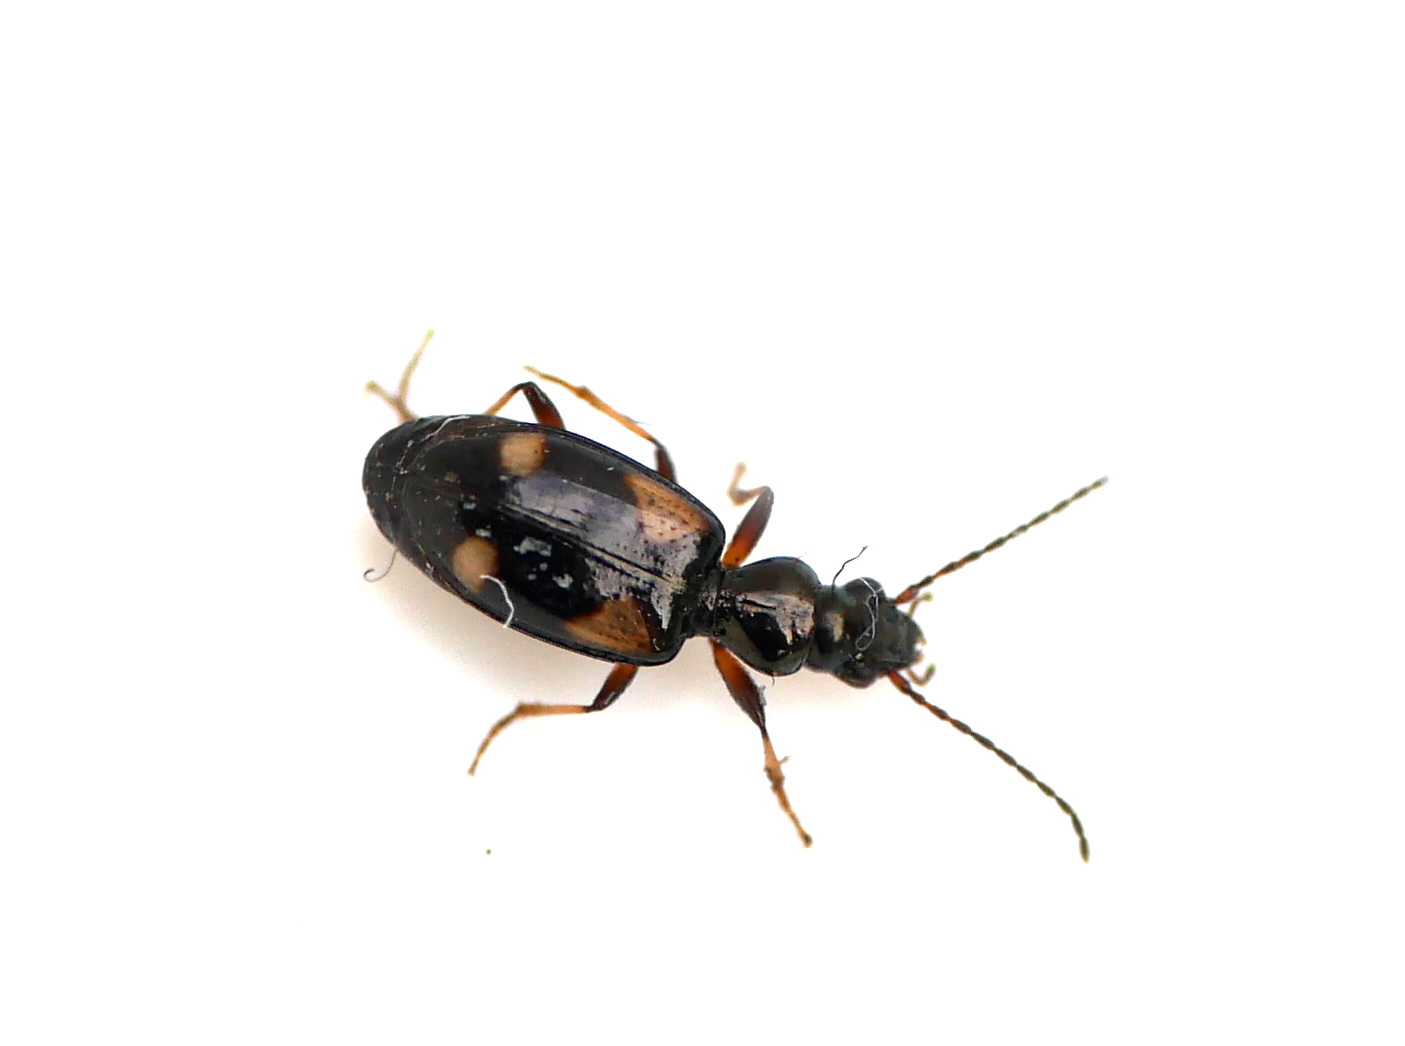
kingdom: Animalia
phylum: Arthropoda
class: Insecta
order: Coleoptera
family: Carabidae
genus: Bembidion
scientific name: Bembidion quadrimaculatum
